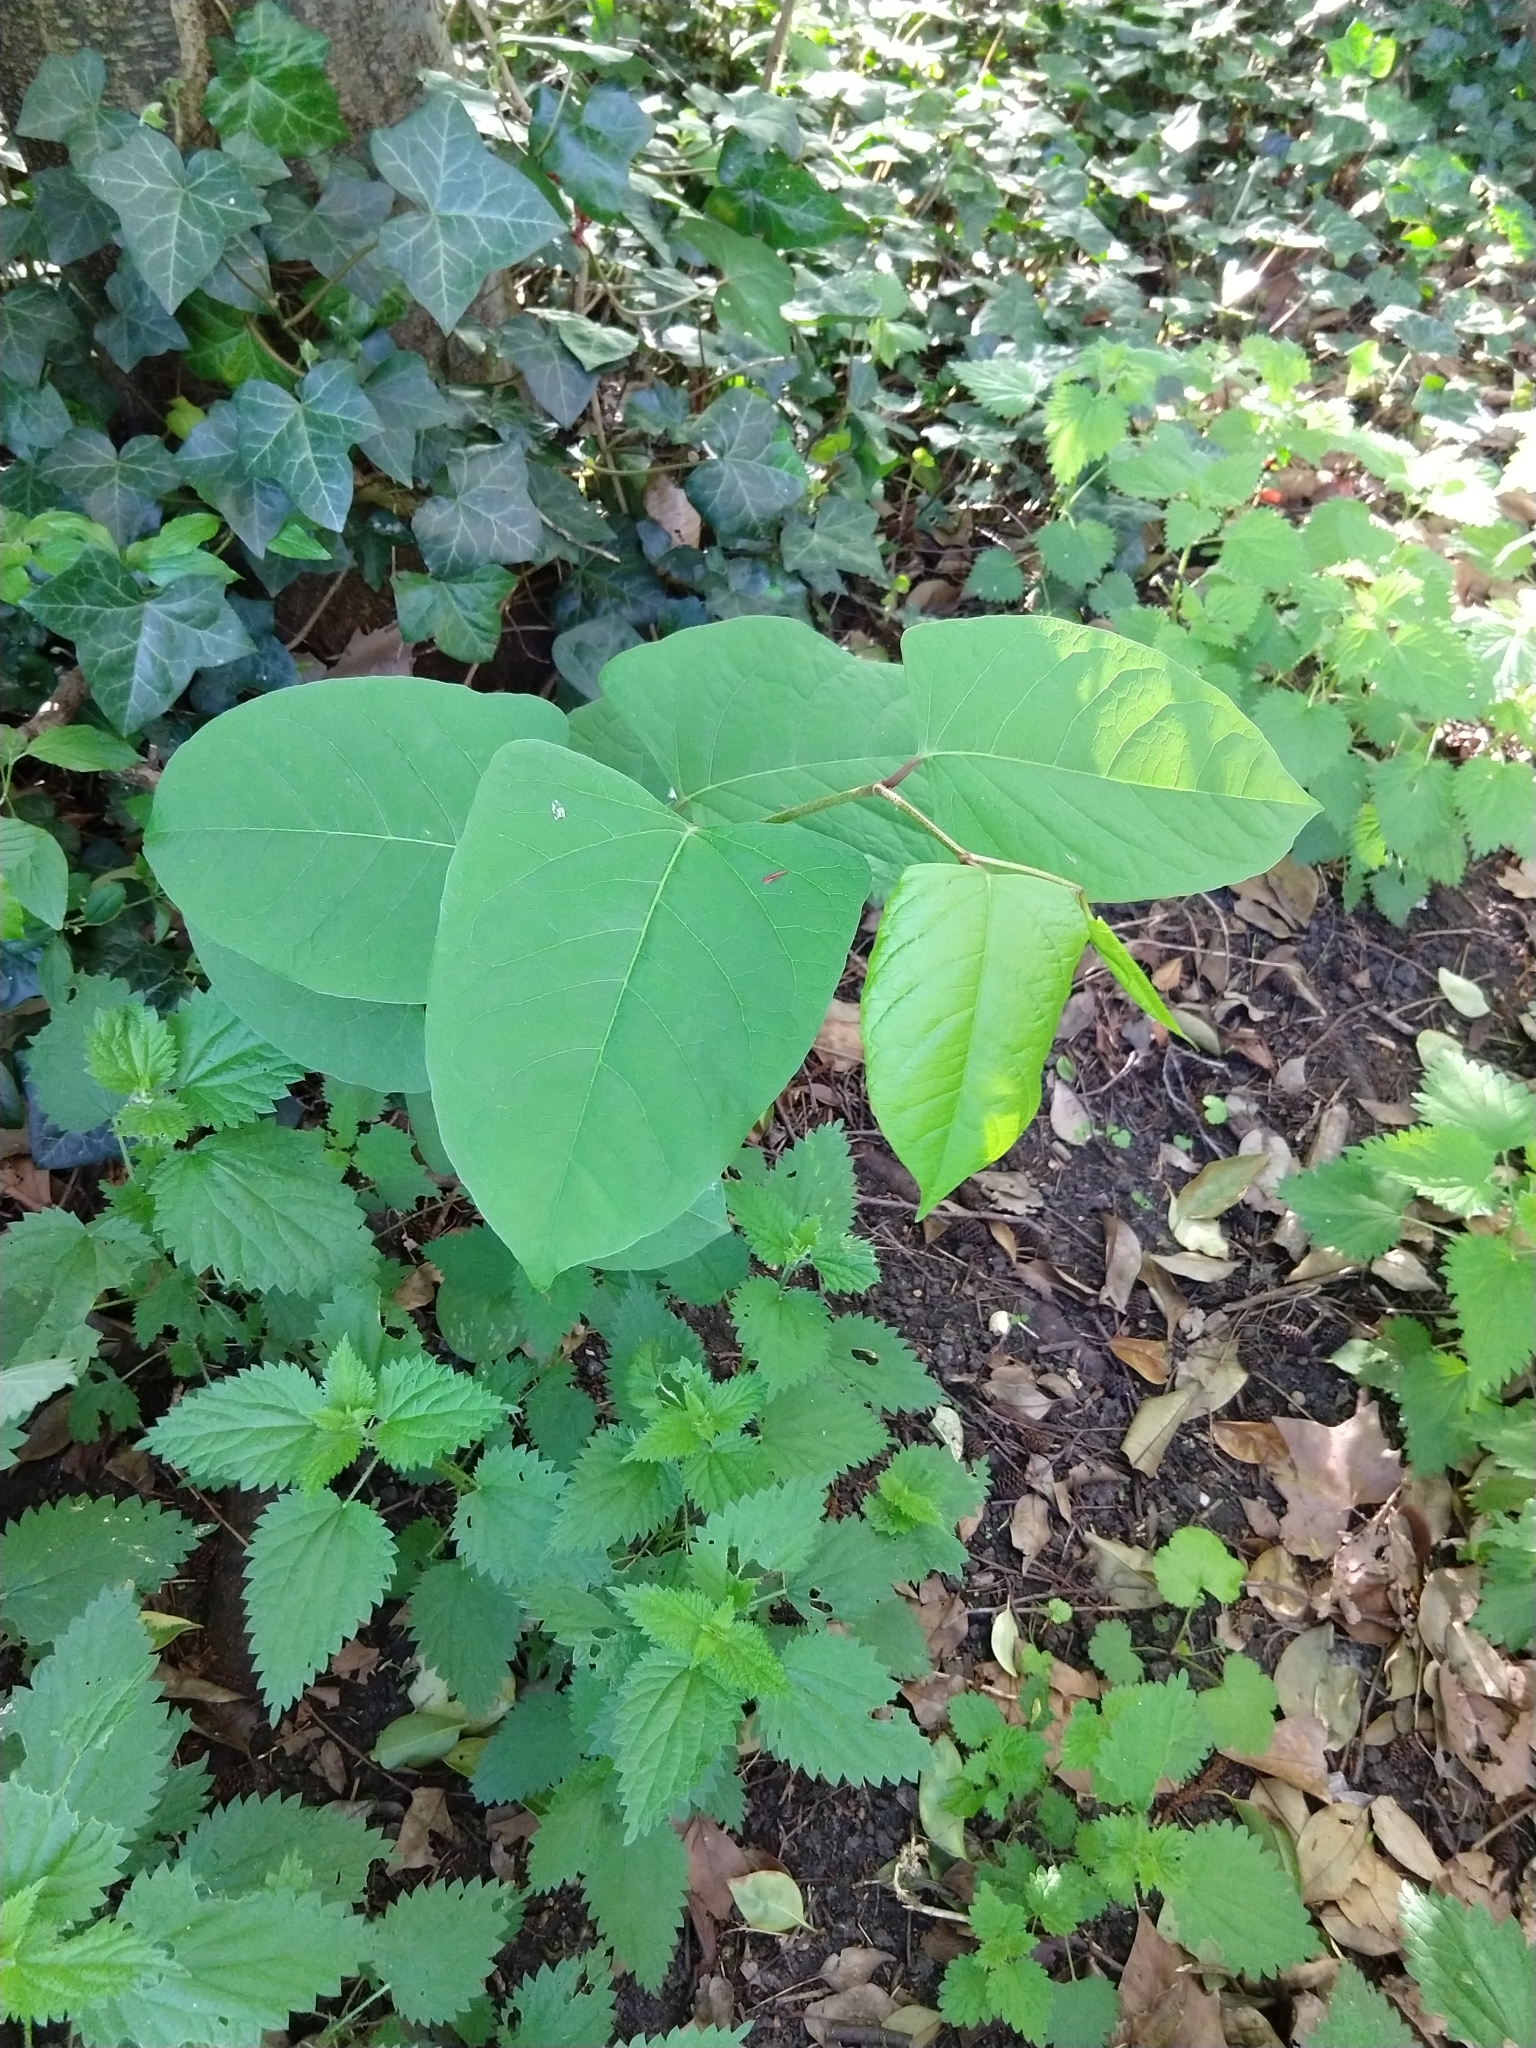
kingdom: Plantae
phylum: Tracheophyta
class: Magnoliopsida
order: Caryophyllales
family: Polygonaceae
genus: Reynoutria
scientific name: Reynoutria japonica
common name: Japanese knotweed
